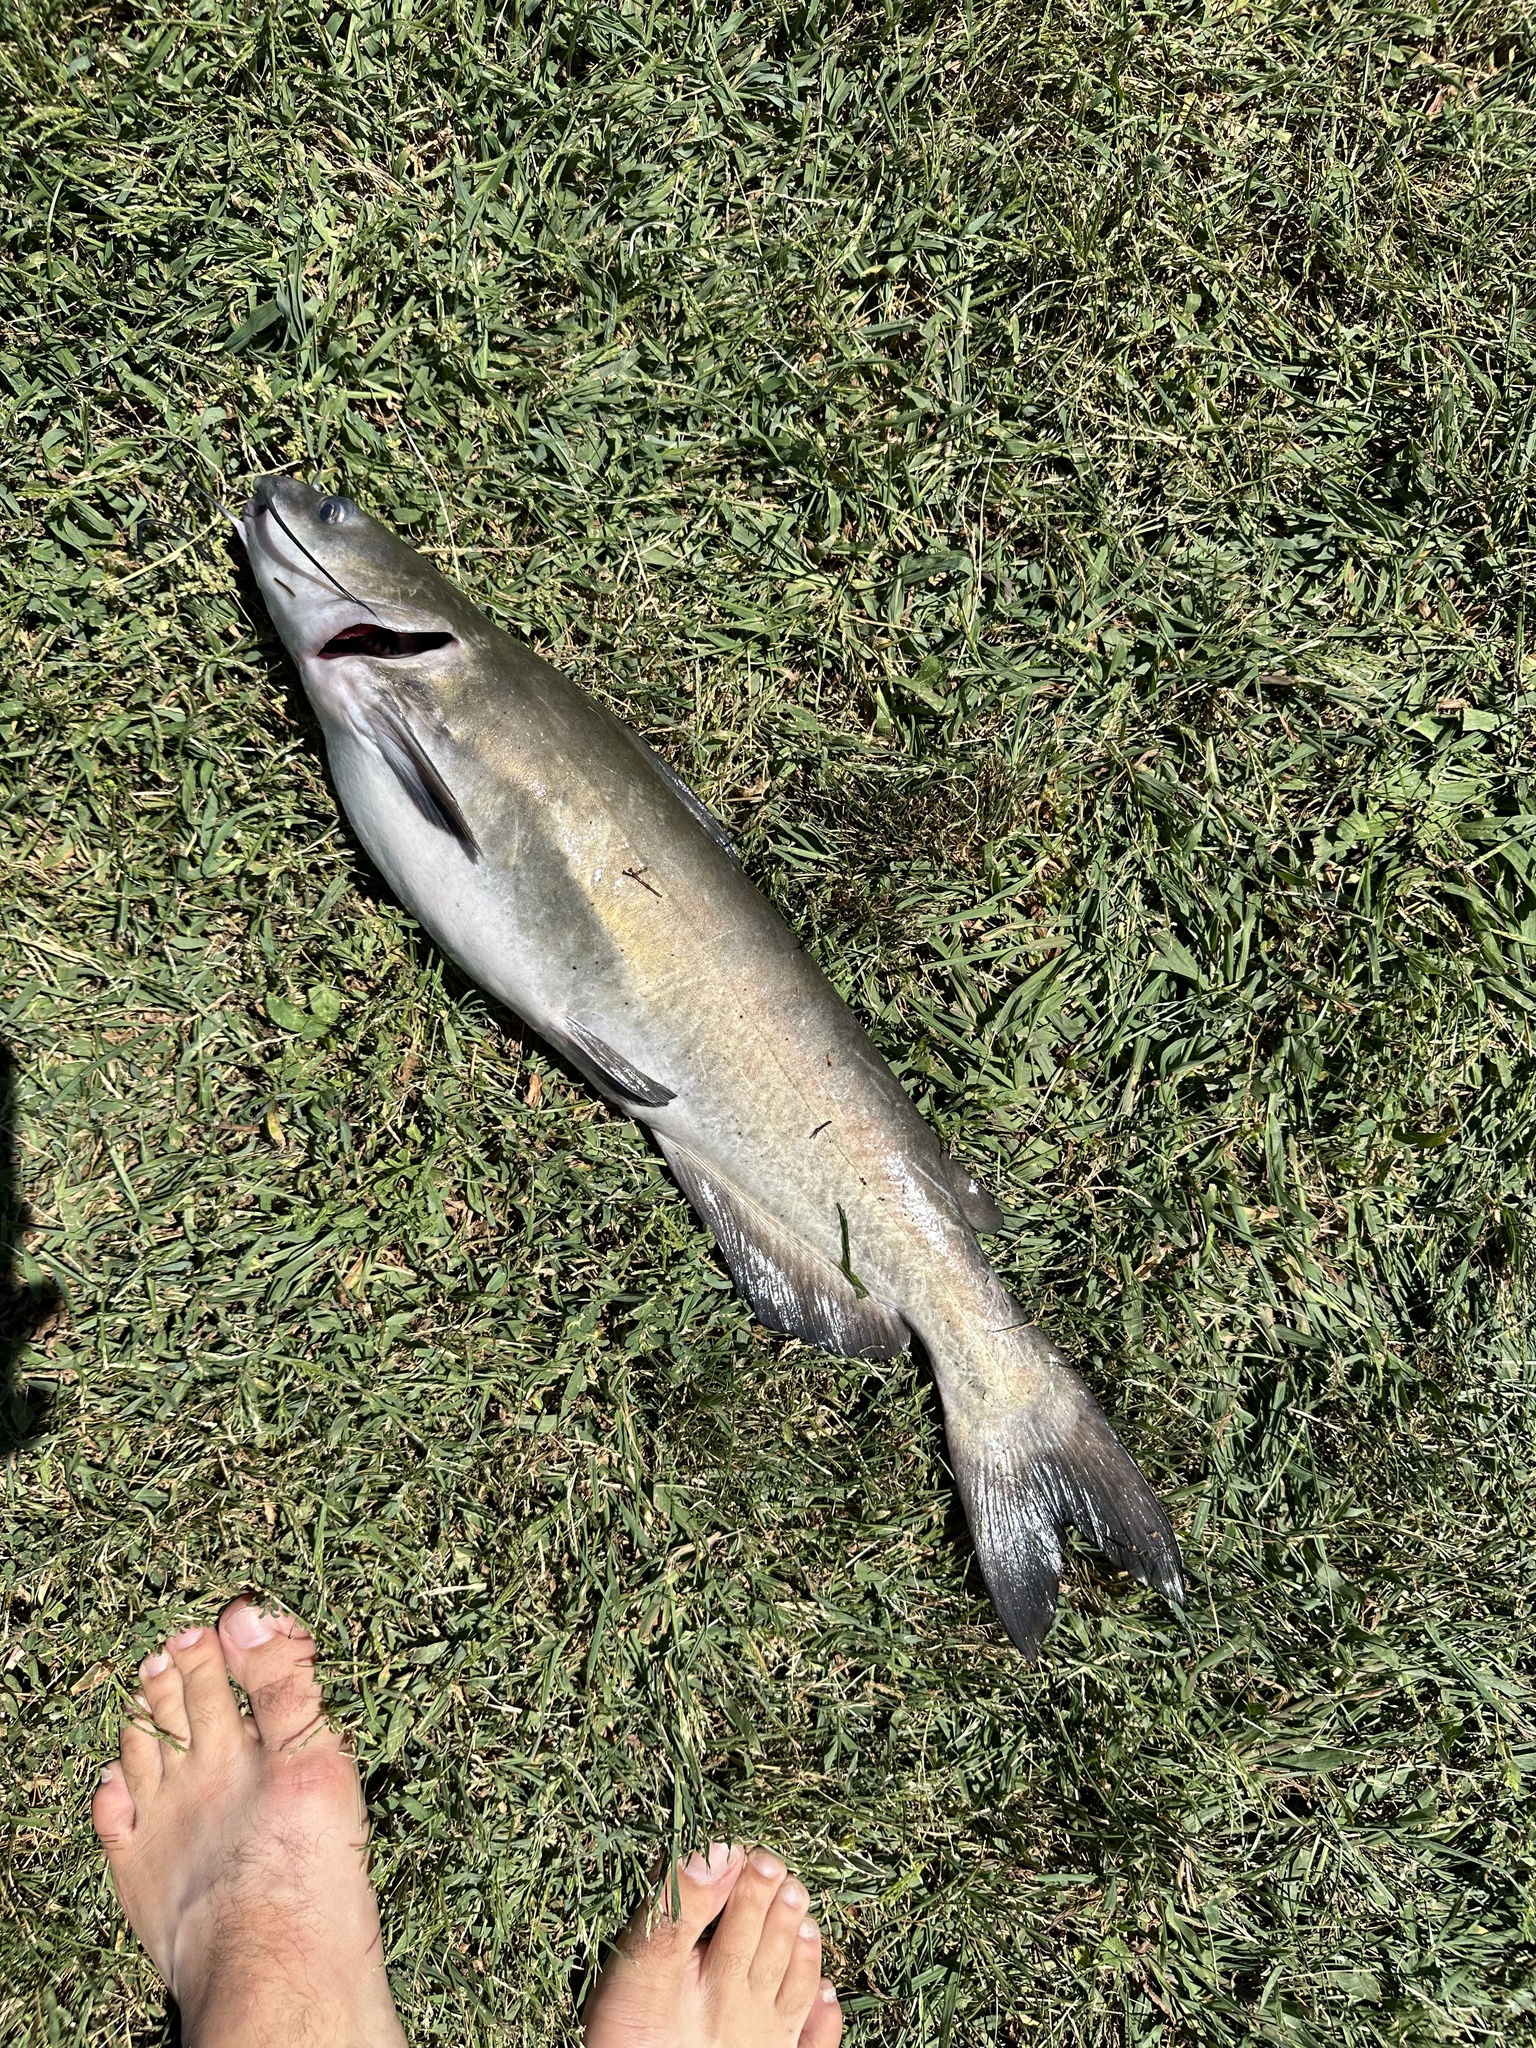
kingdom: Animalia
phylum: Chordata
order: Siluriformes
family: Ictaluridae
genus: Ictalurus
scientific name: Ictalurus punctatus
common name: Channel catfish
